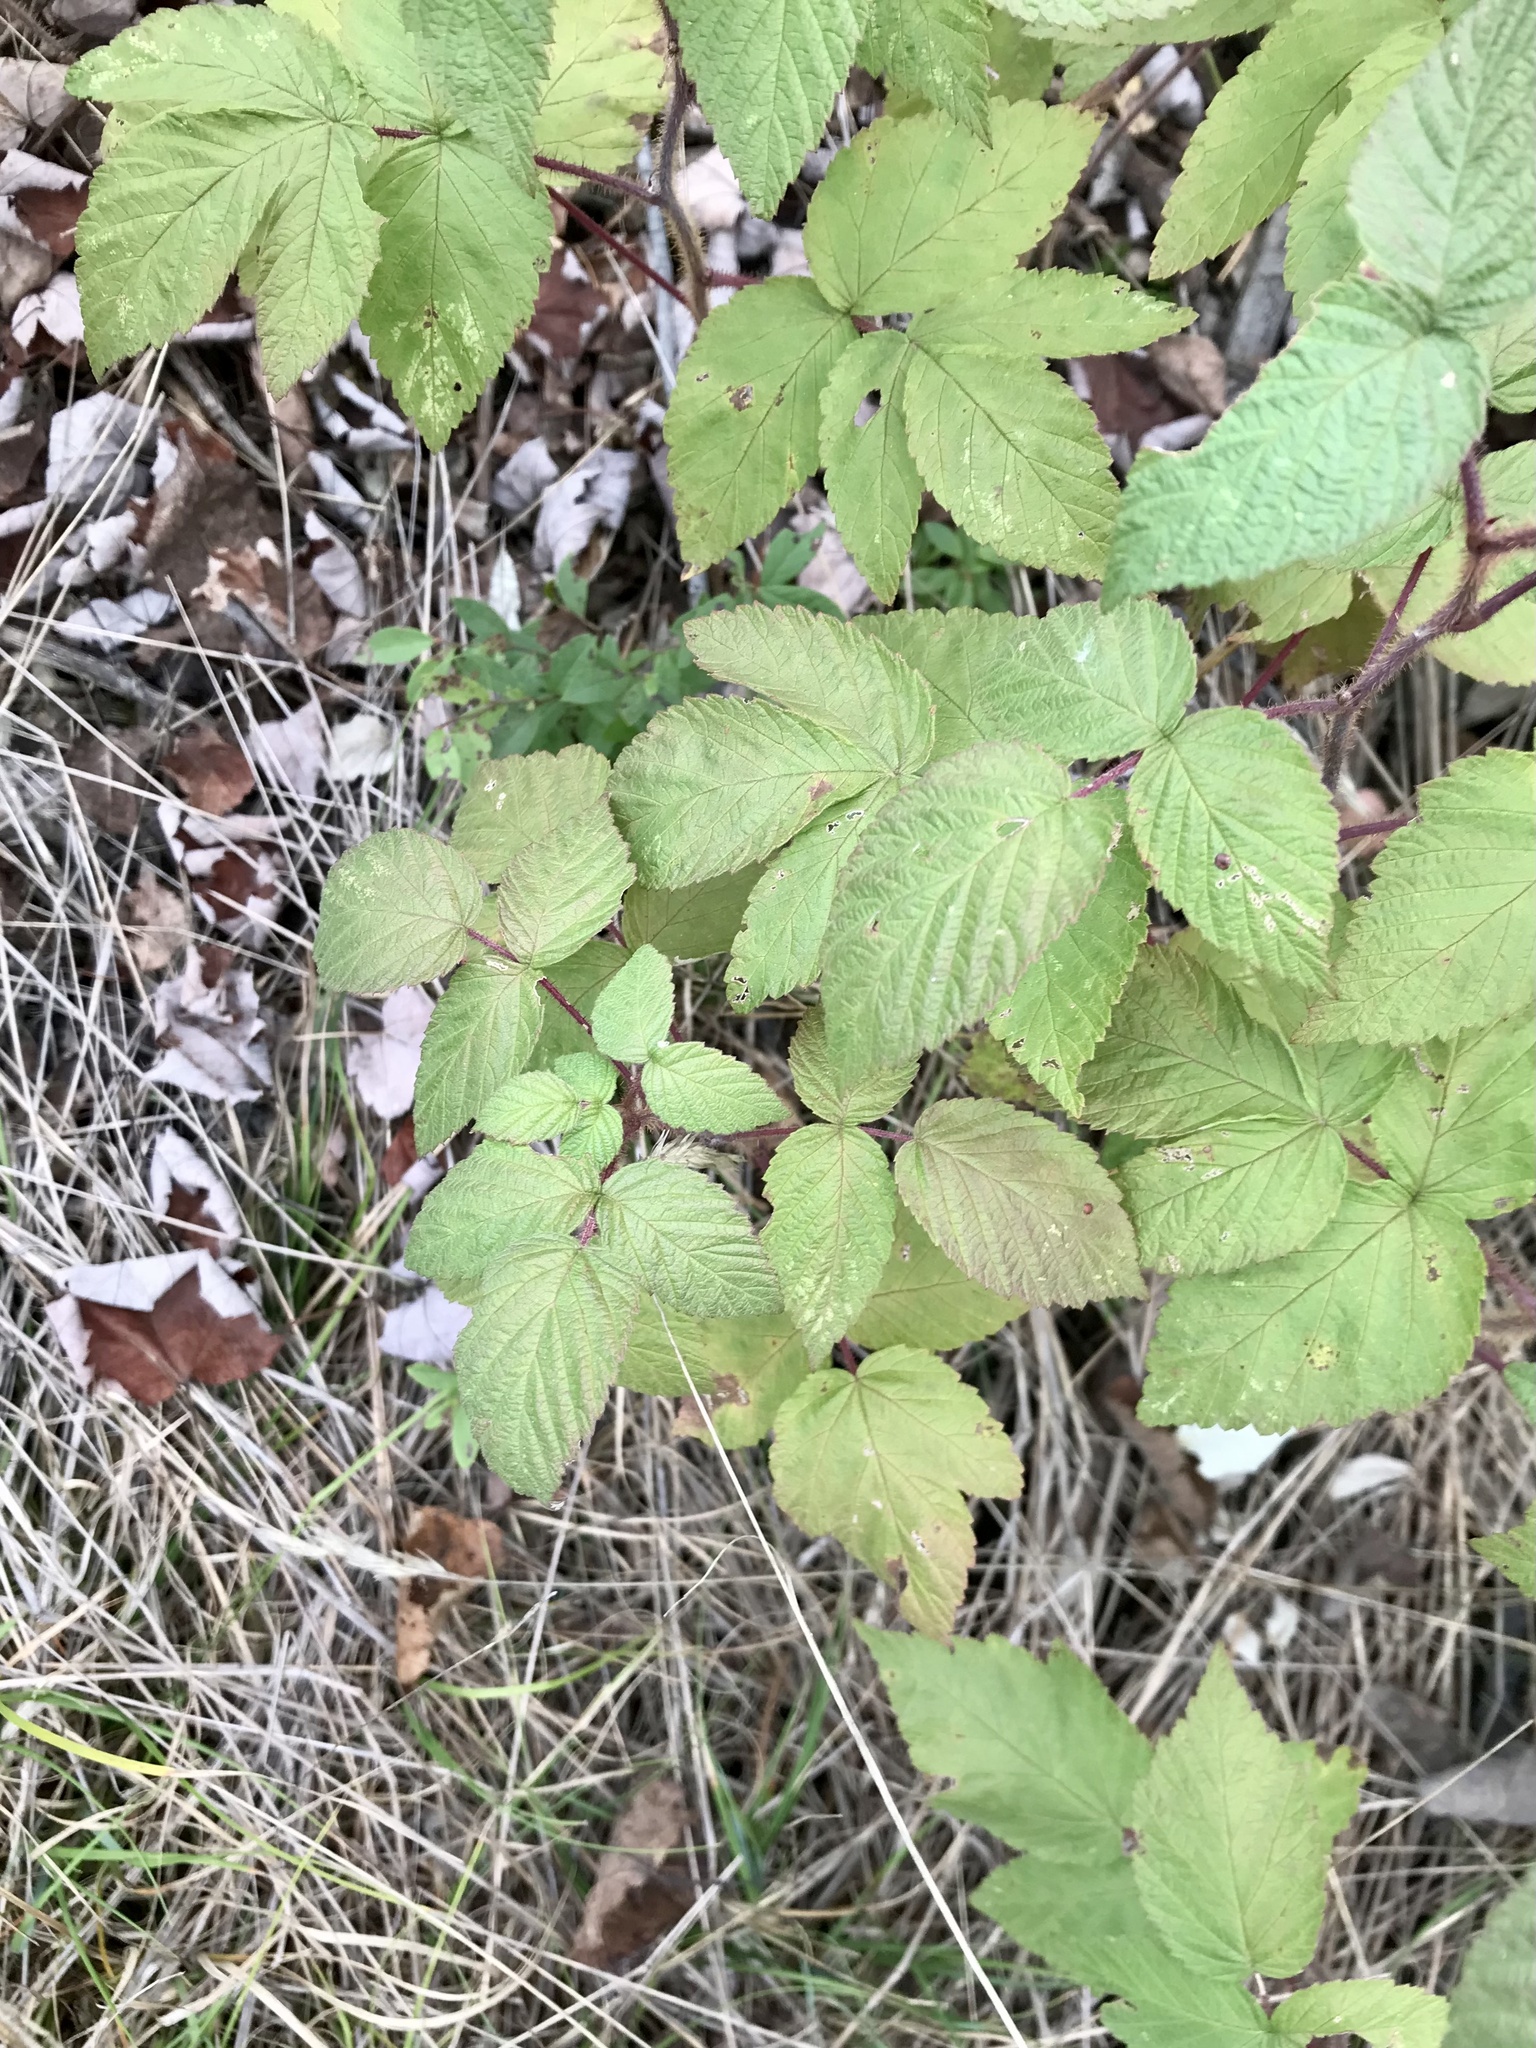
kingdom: Plantae
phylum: Tracheophyta
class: Magnoliopsida
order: Rosales
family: Rosaceae
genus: Rubus
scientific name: Rubus idaeus
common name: Raspberry
